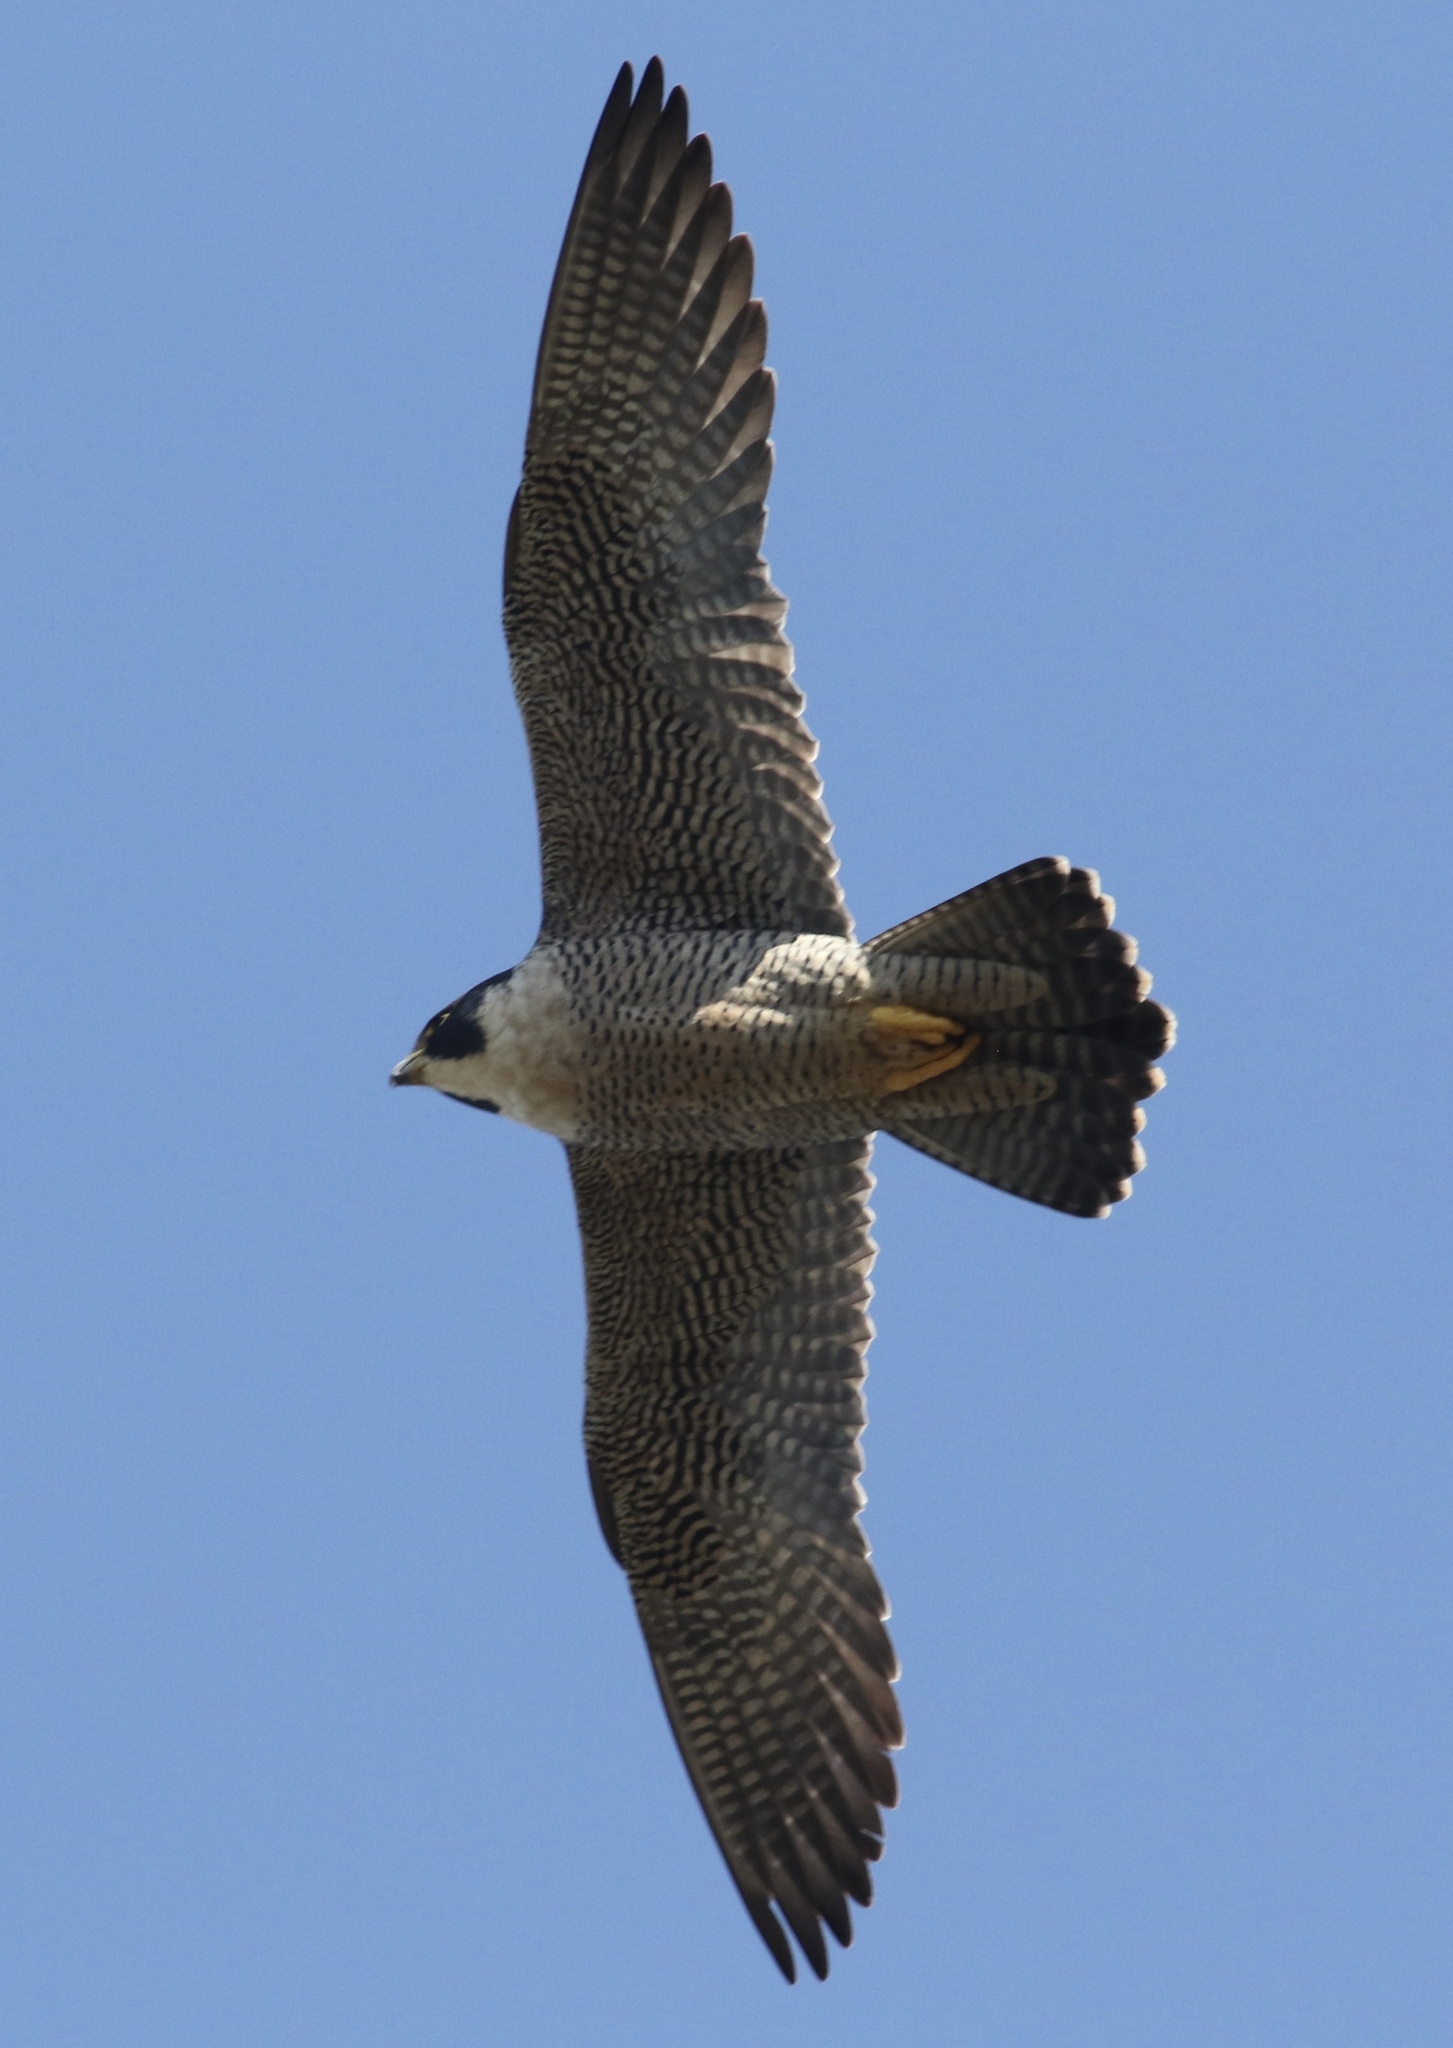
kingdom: Animalia
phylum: Chordata
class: Aves
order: Falconiformes
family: Falconidae
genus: Falco
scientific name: Falco peregrinus
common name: Peregrine falcon
